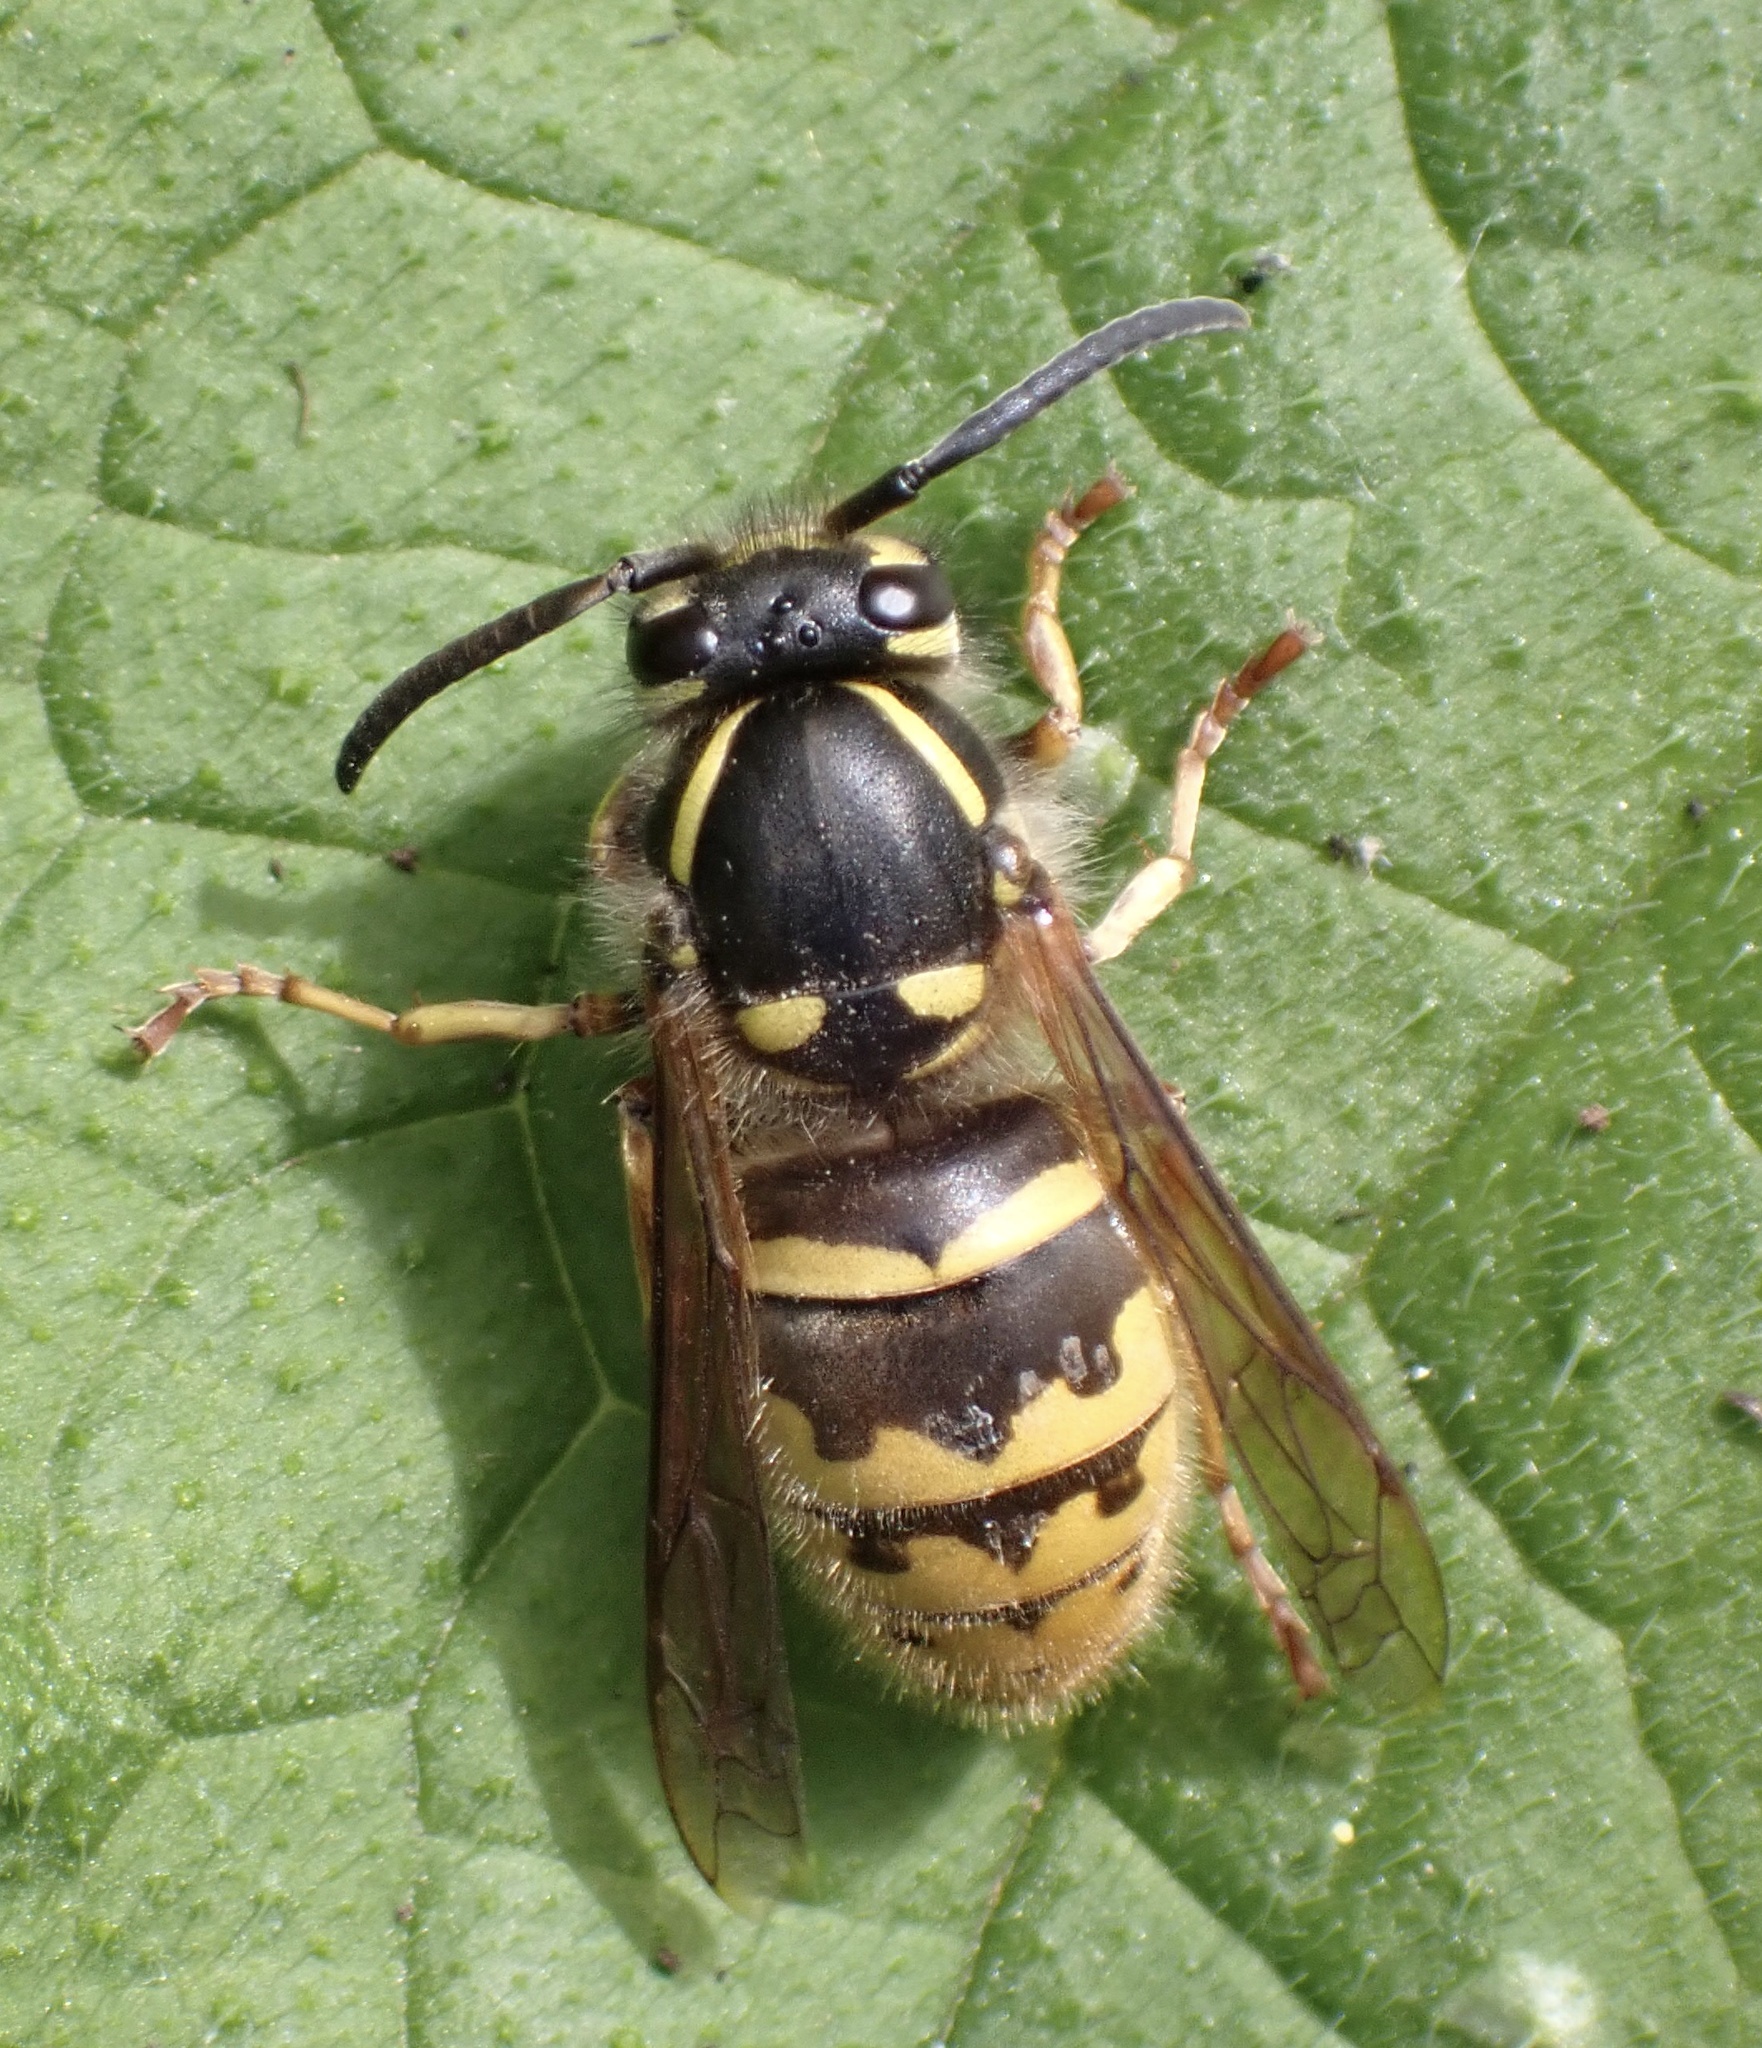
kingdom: Animalia
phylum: Arthropoda
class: Insecta
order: Hymenoptera
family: Vespidae
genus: Vespula
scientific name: Vespula vulgaris
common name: Common wasp
